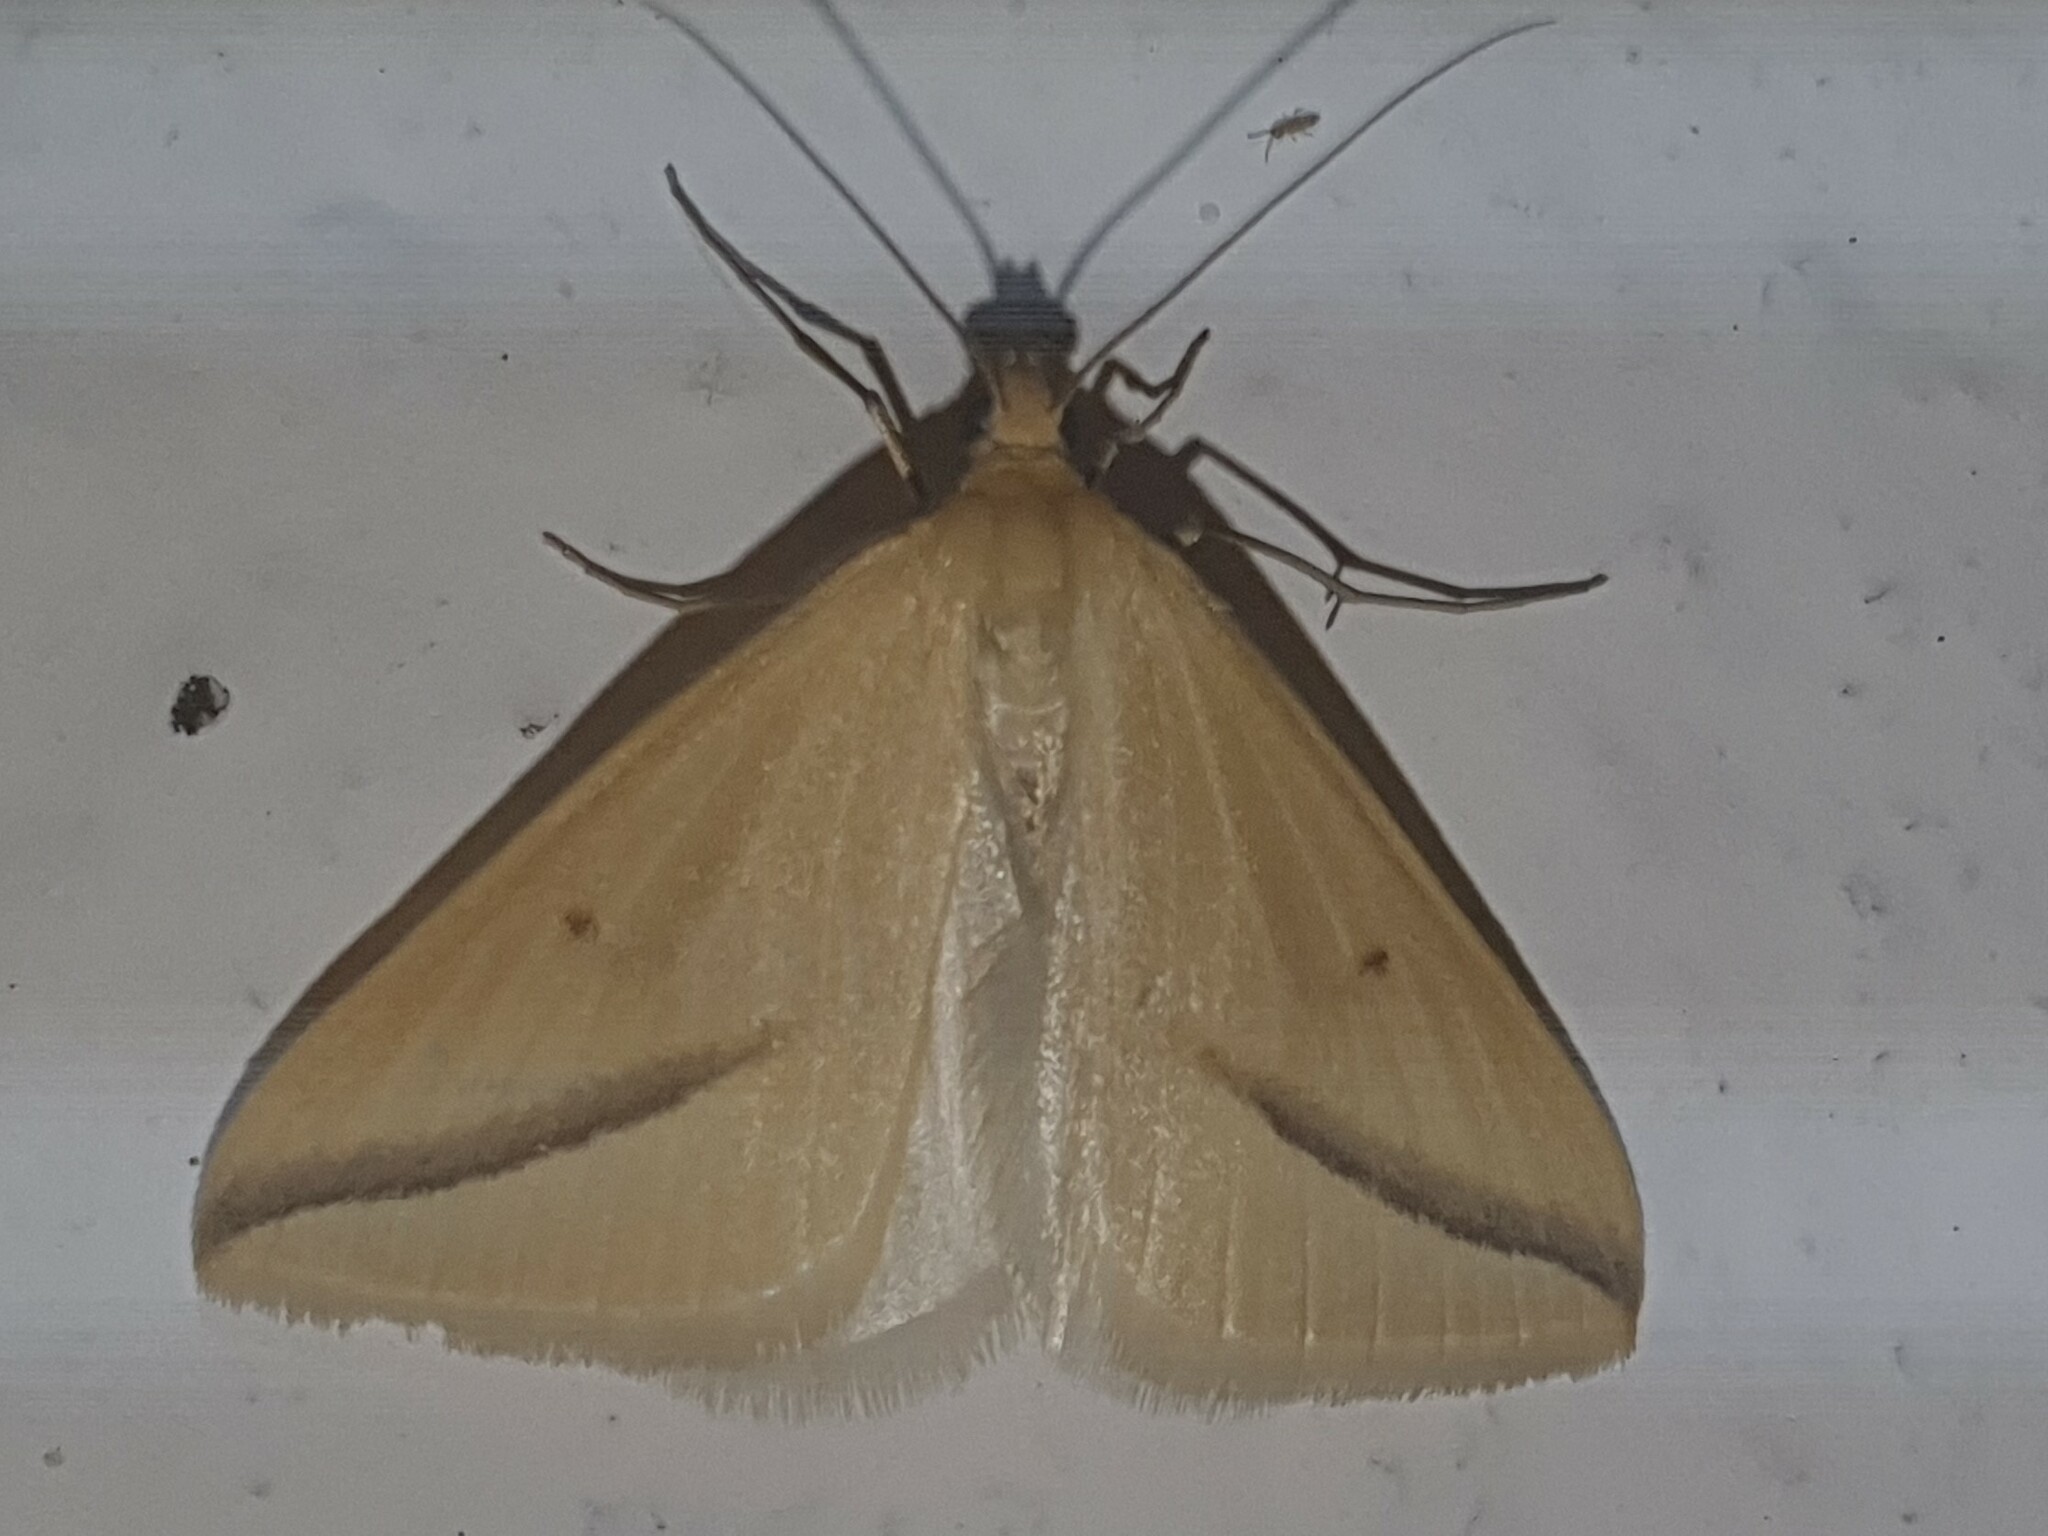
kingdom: Animalia
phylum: Arthropoda
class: Insecta
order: Lepidoptera
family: Geometridae
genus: Rhodometra
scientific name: Rhodometra sacraria
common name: Vestal
